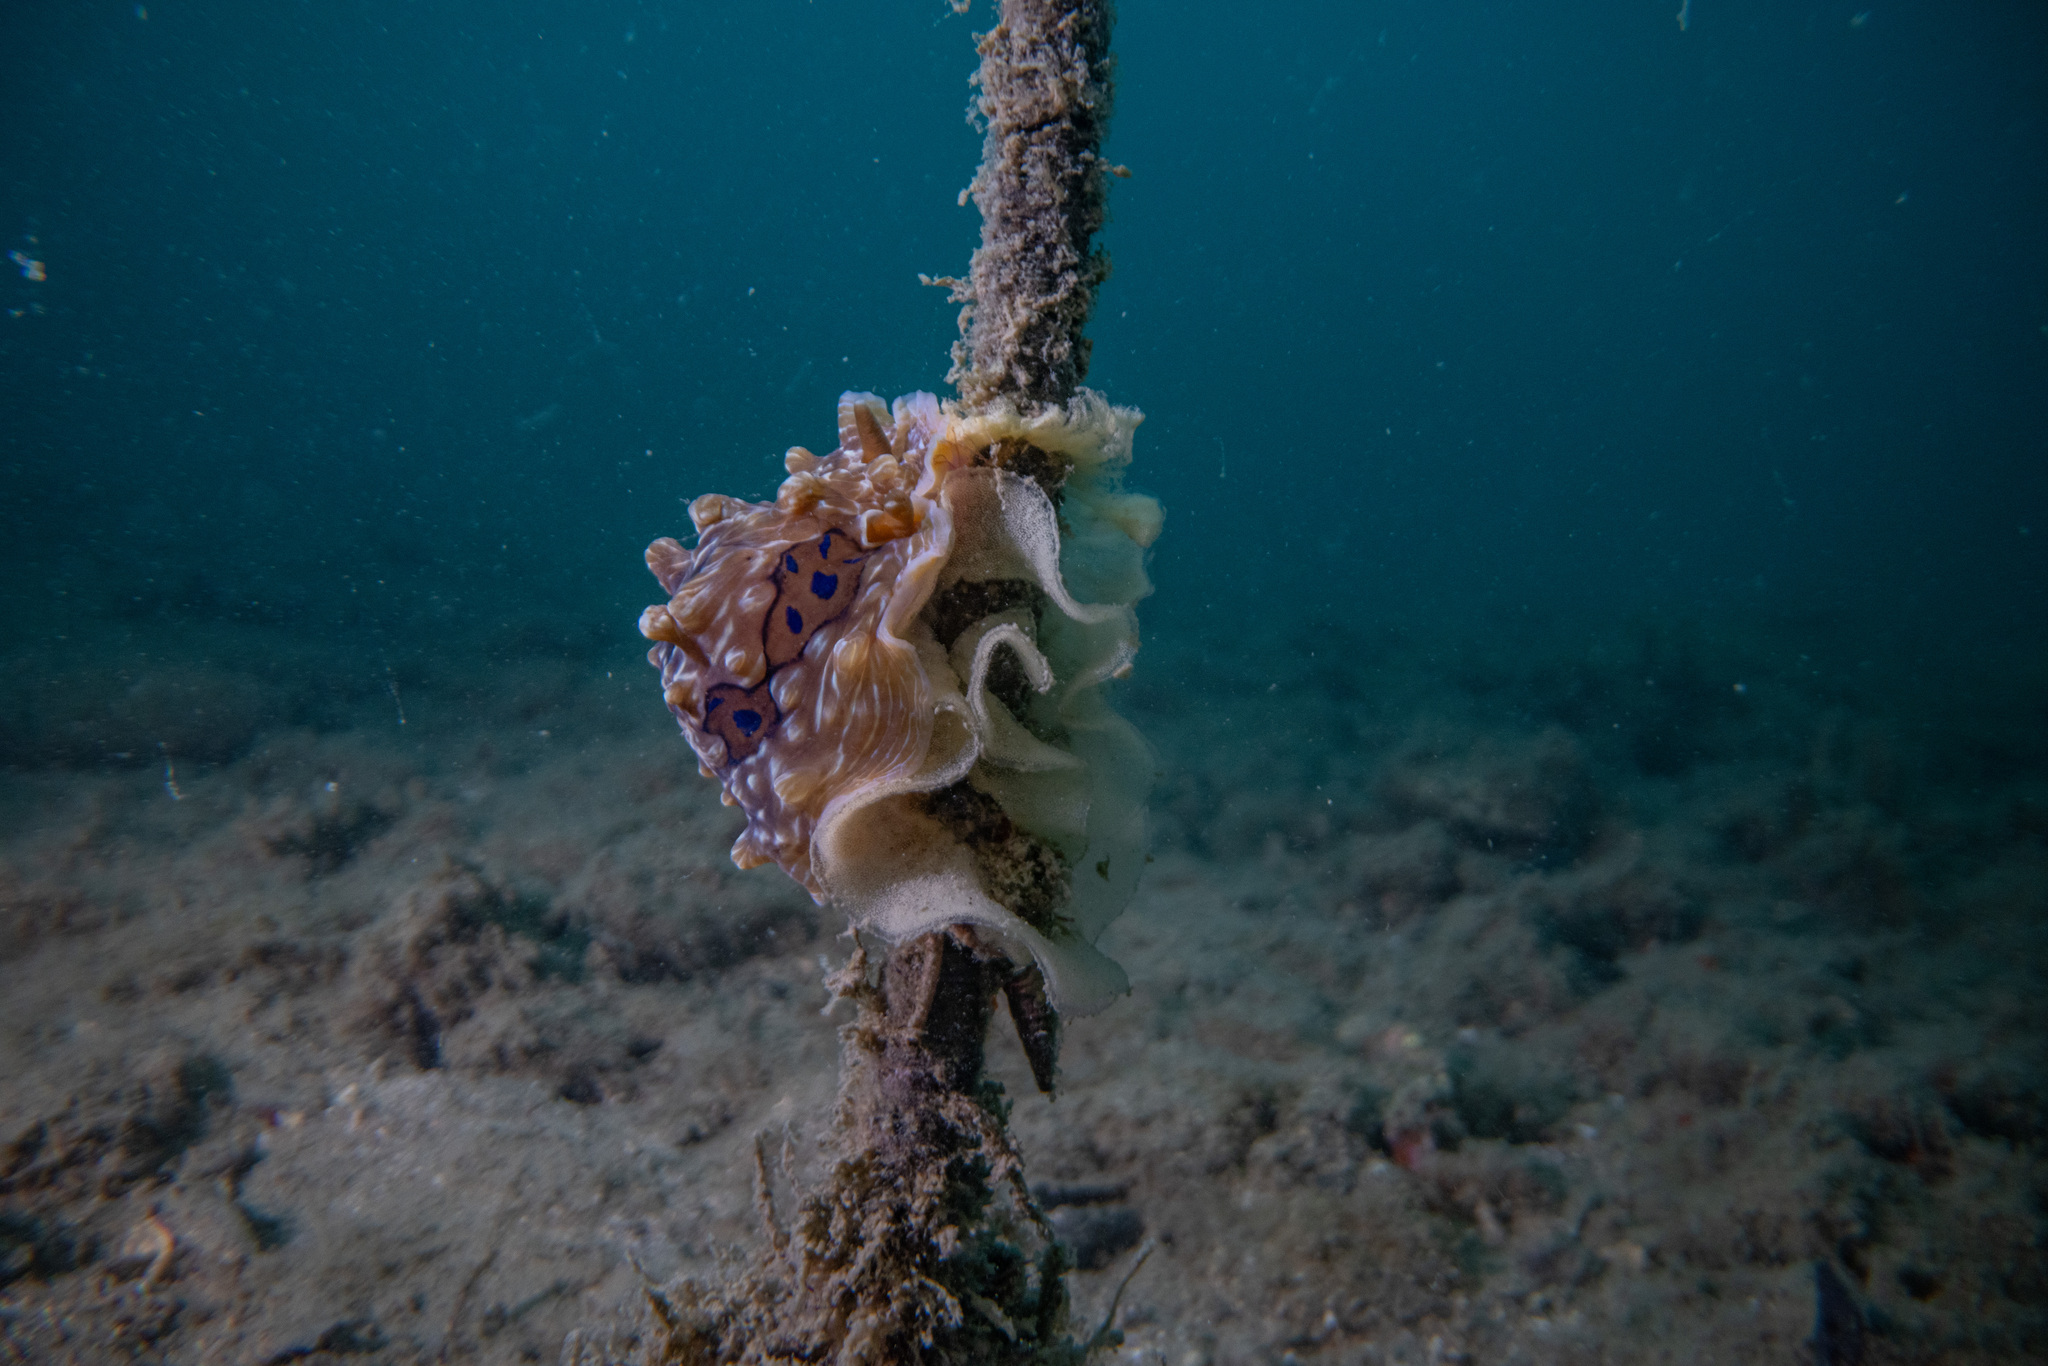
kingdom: Animalia
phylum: Mollusca
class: Gastropoda
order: Nudibranchia
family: Dendrodorididae
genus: Dendrodoris
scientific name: Dendrodoris krusensternii
